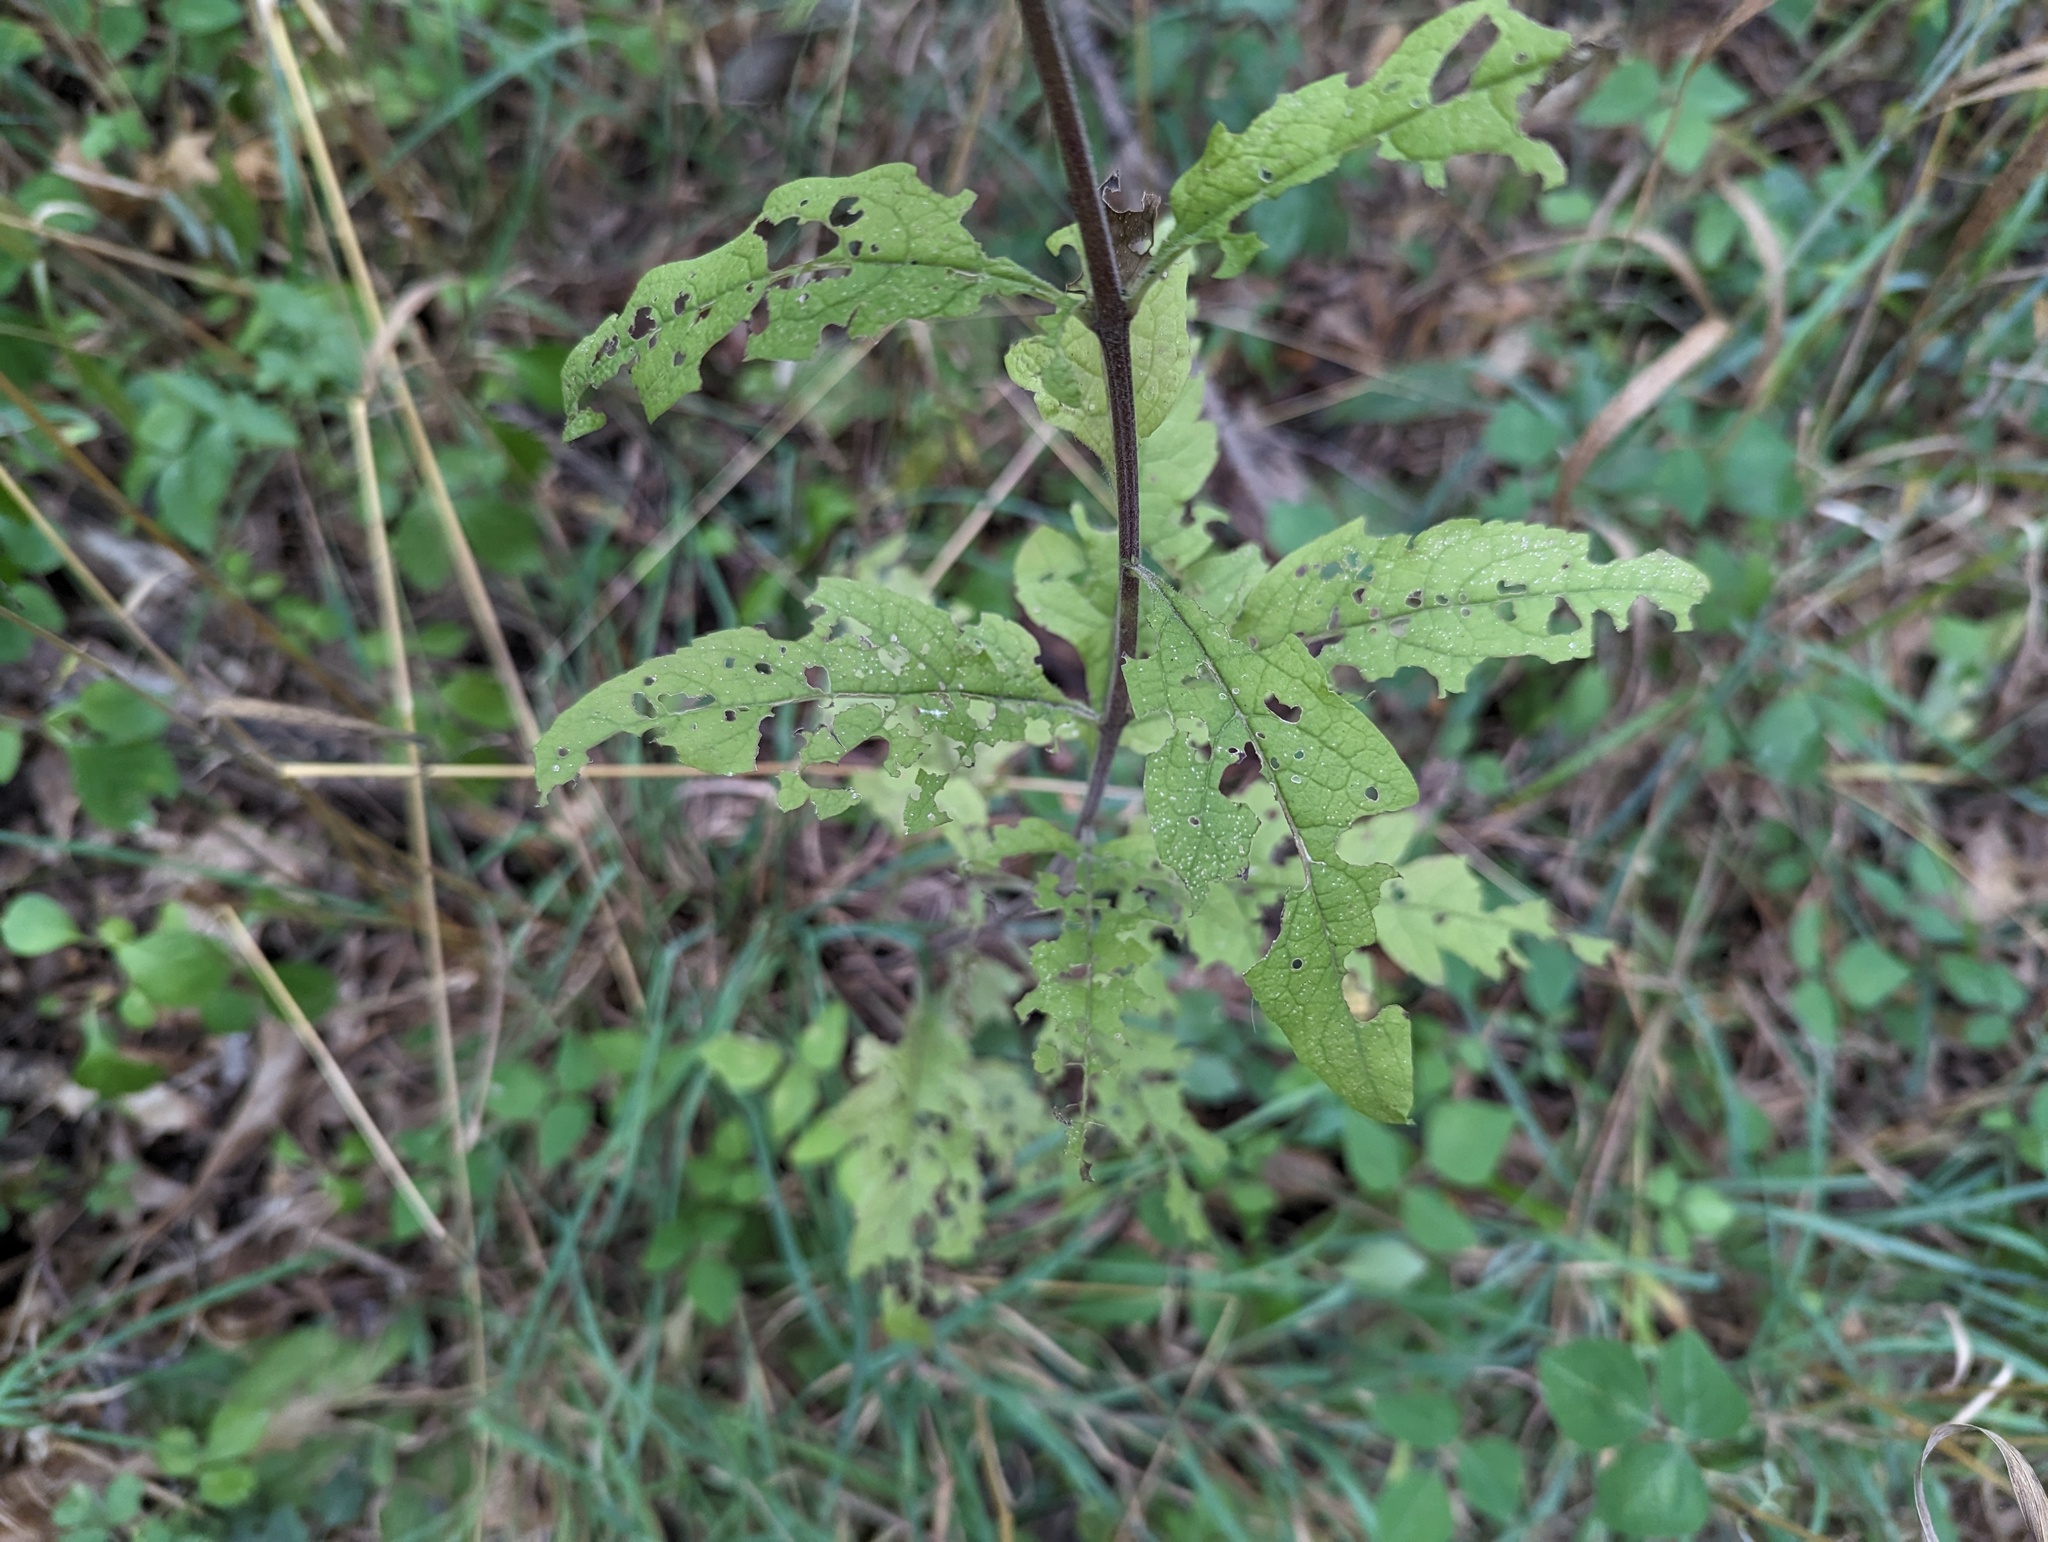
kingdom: Plantae
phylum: Tracheophyta
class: Magnoliopsida
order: Lamiales
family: Orobanchaceae
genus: Dasistoma
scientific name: Dasistoma macrophyllum
